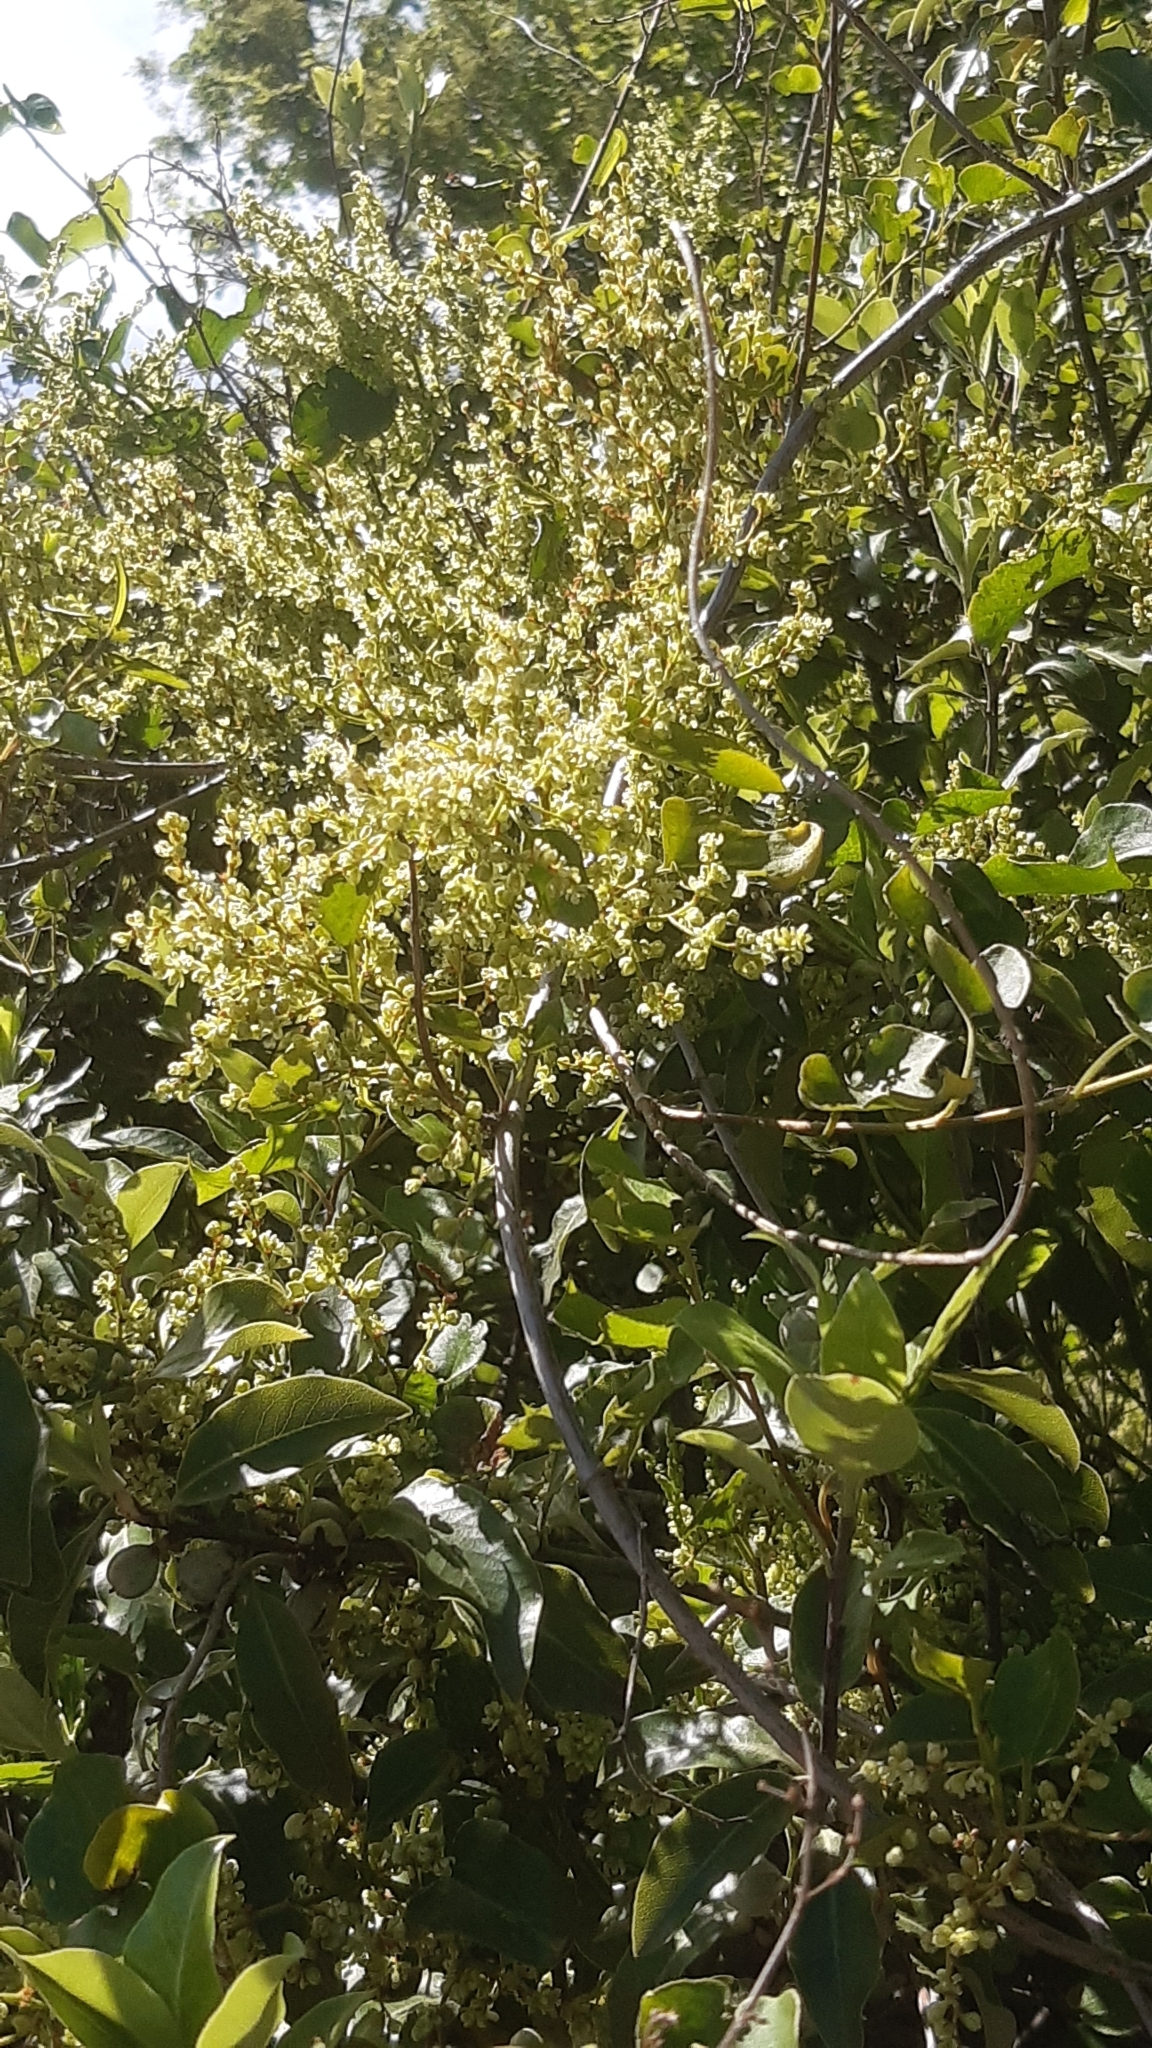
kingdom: Plantae
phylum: Tracheophyta
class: Magnoliopsida
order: Caryophyllales
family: Polygonaceae
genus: Muehlenbeckia
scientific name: Muehlenbeckia australis
